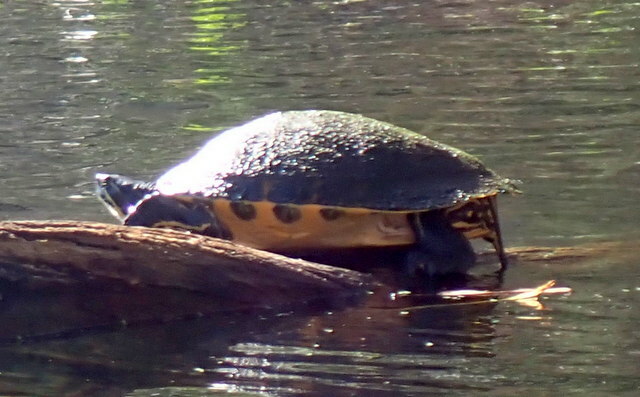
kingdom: Animalia
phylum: Chordata
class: Testudines
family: Emydidae
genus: Pseudemys
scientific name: Pseudemys concinna
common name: Eastern river cooter
